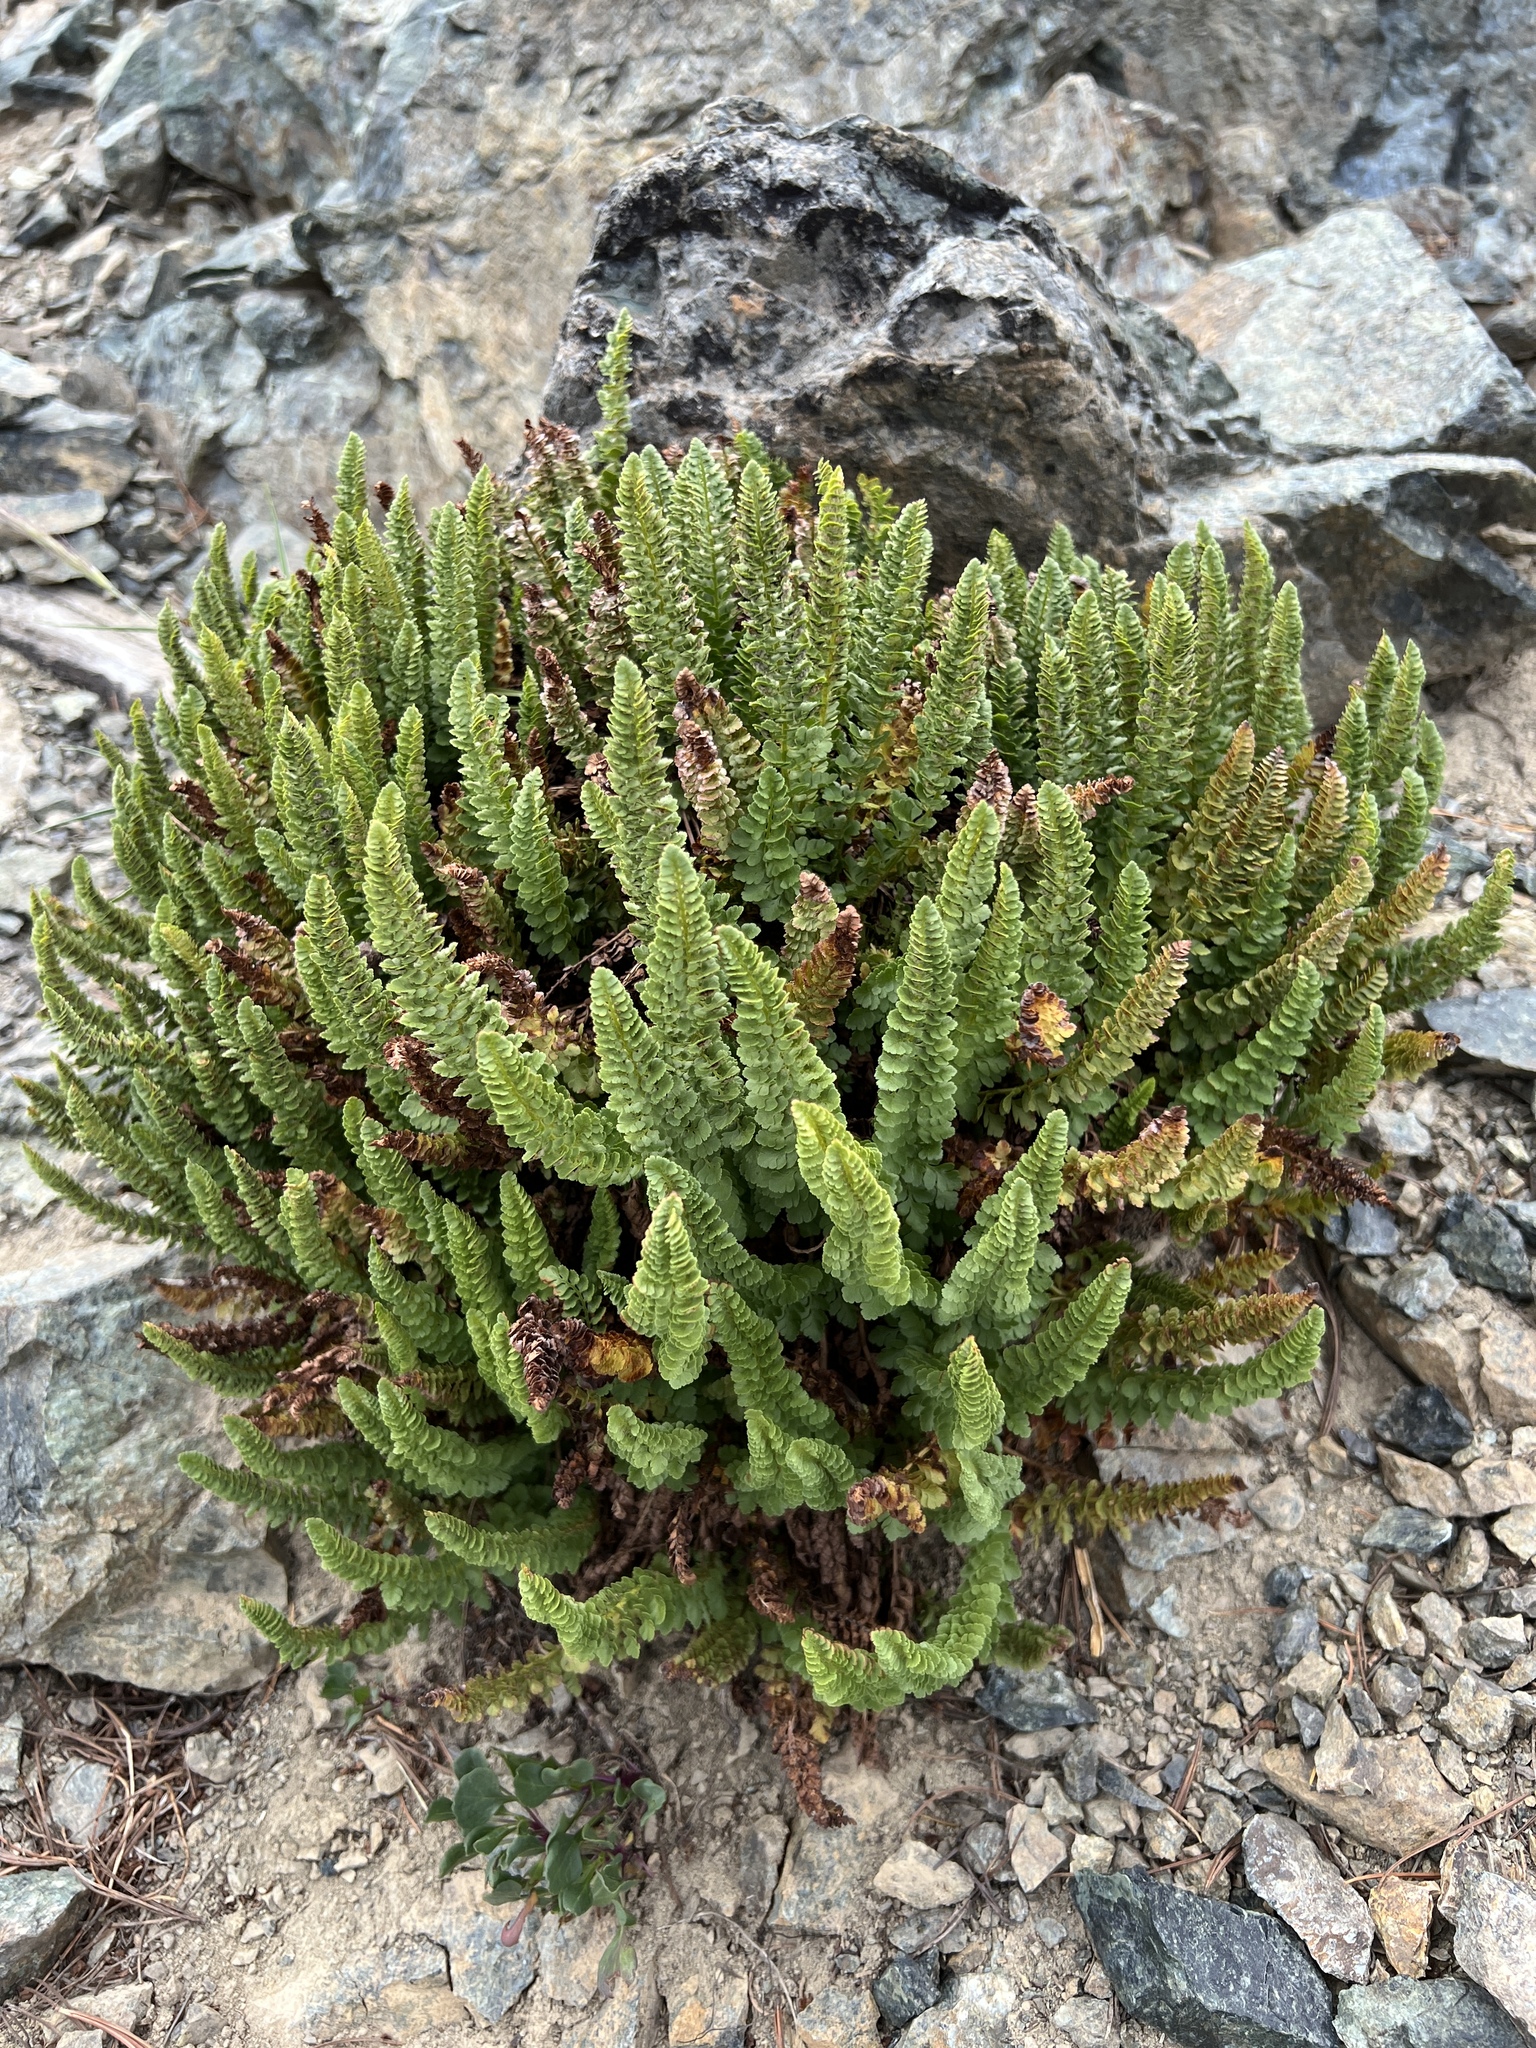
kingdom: Plantae
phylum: Tracheophyta
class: Polypodiopsida
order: Polypodiales
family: Dryopteridaceae
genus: Polystichum
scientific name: Polystichum lemmonii
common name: Lemmon's holly fern
